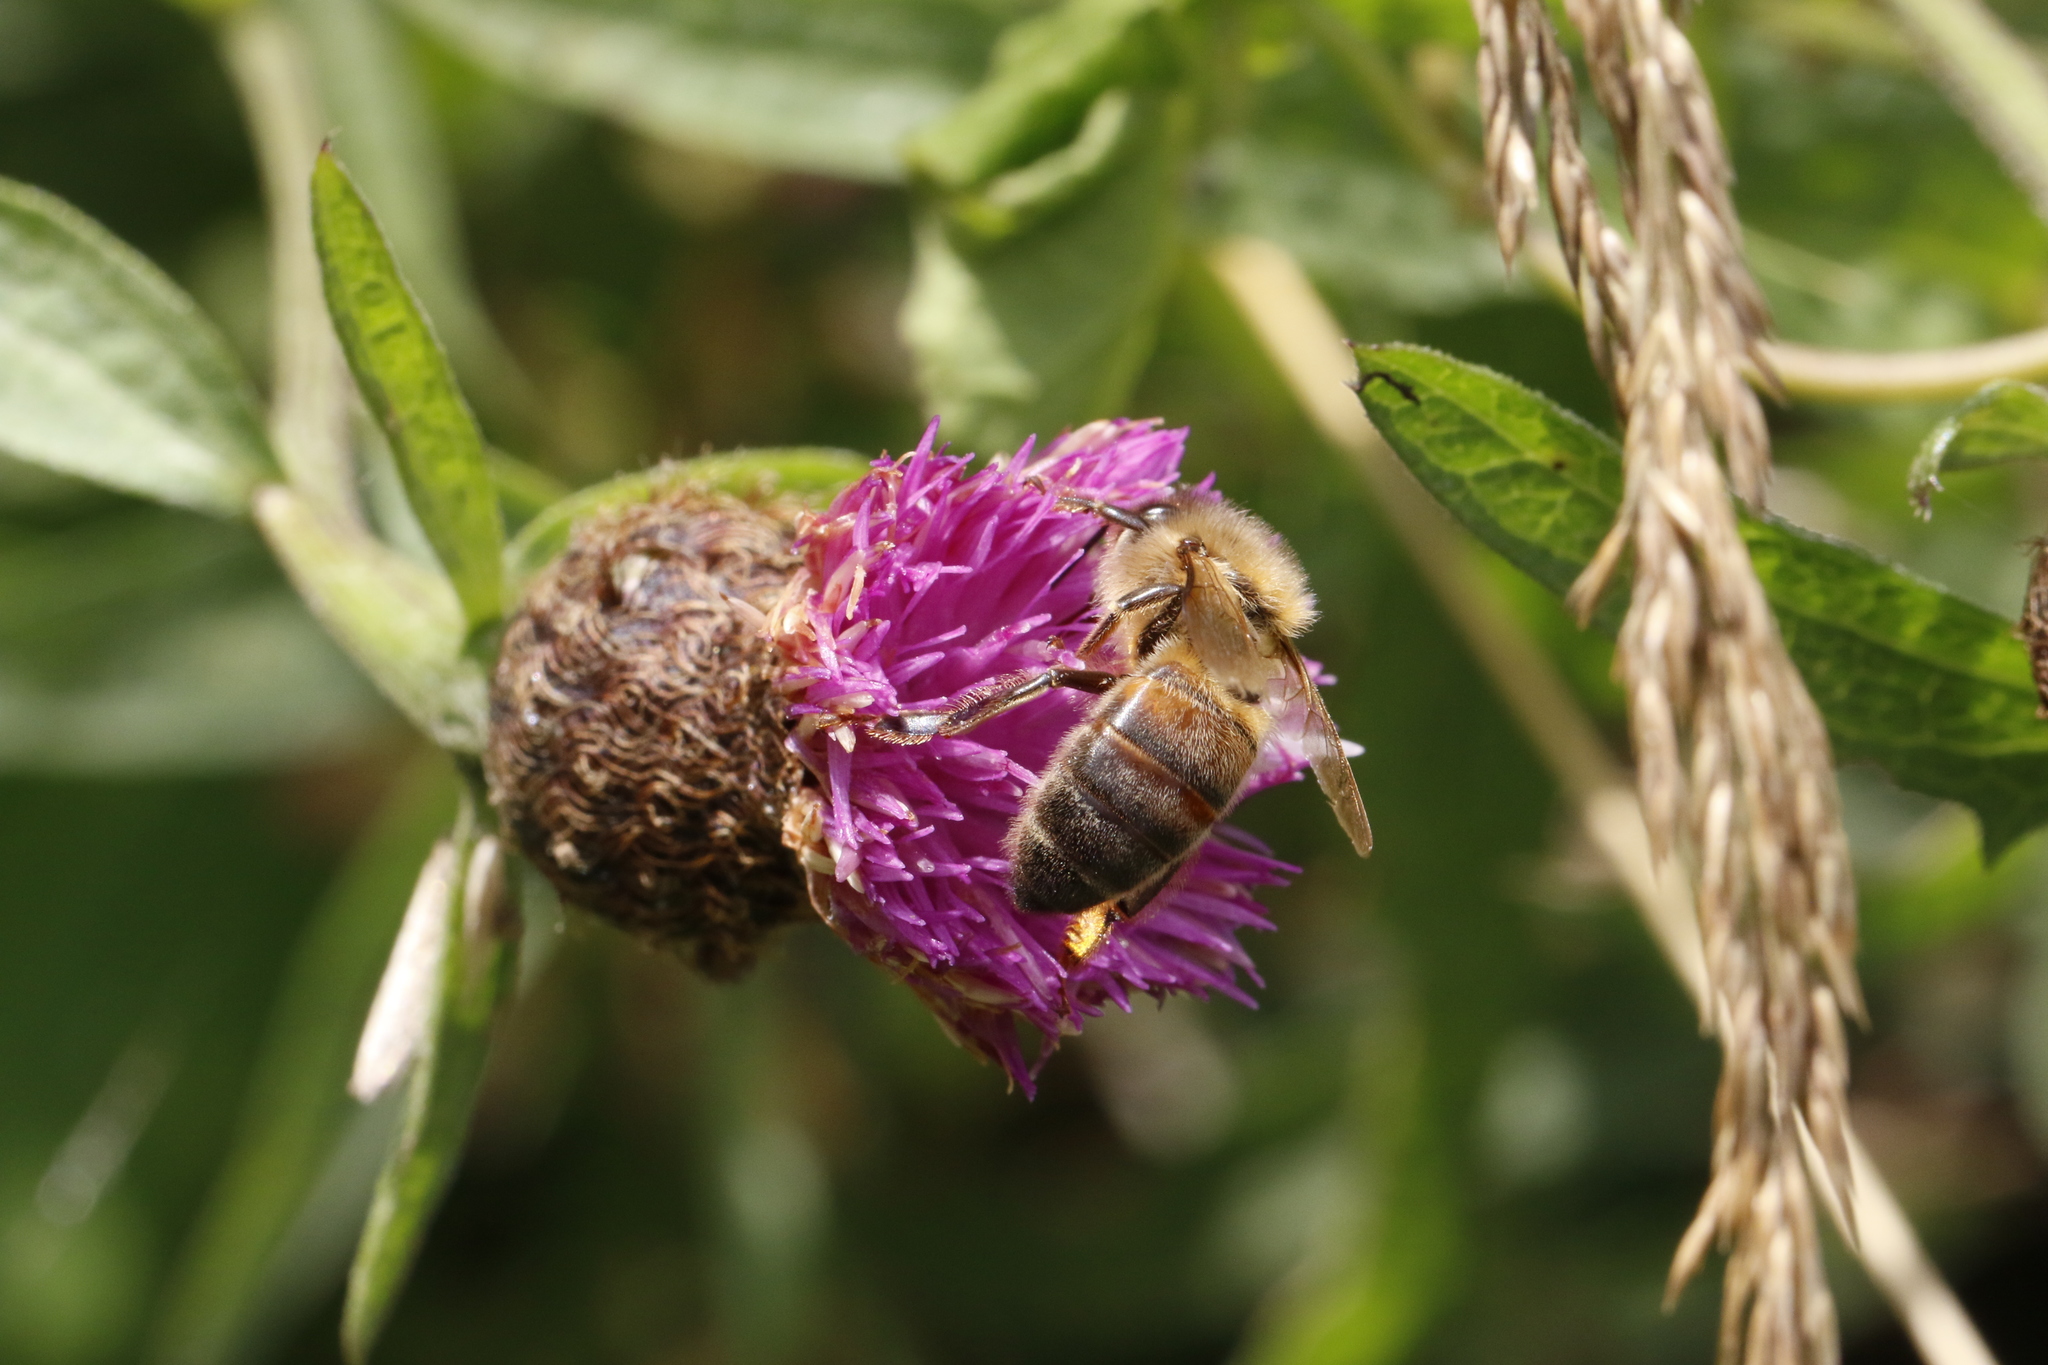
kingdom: Animalia
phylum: Arthropoda
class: Insecta
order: Hymenoptera
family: Apidae
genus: Apis
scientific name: Apis mellifera
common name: Honey bee
